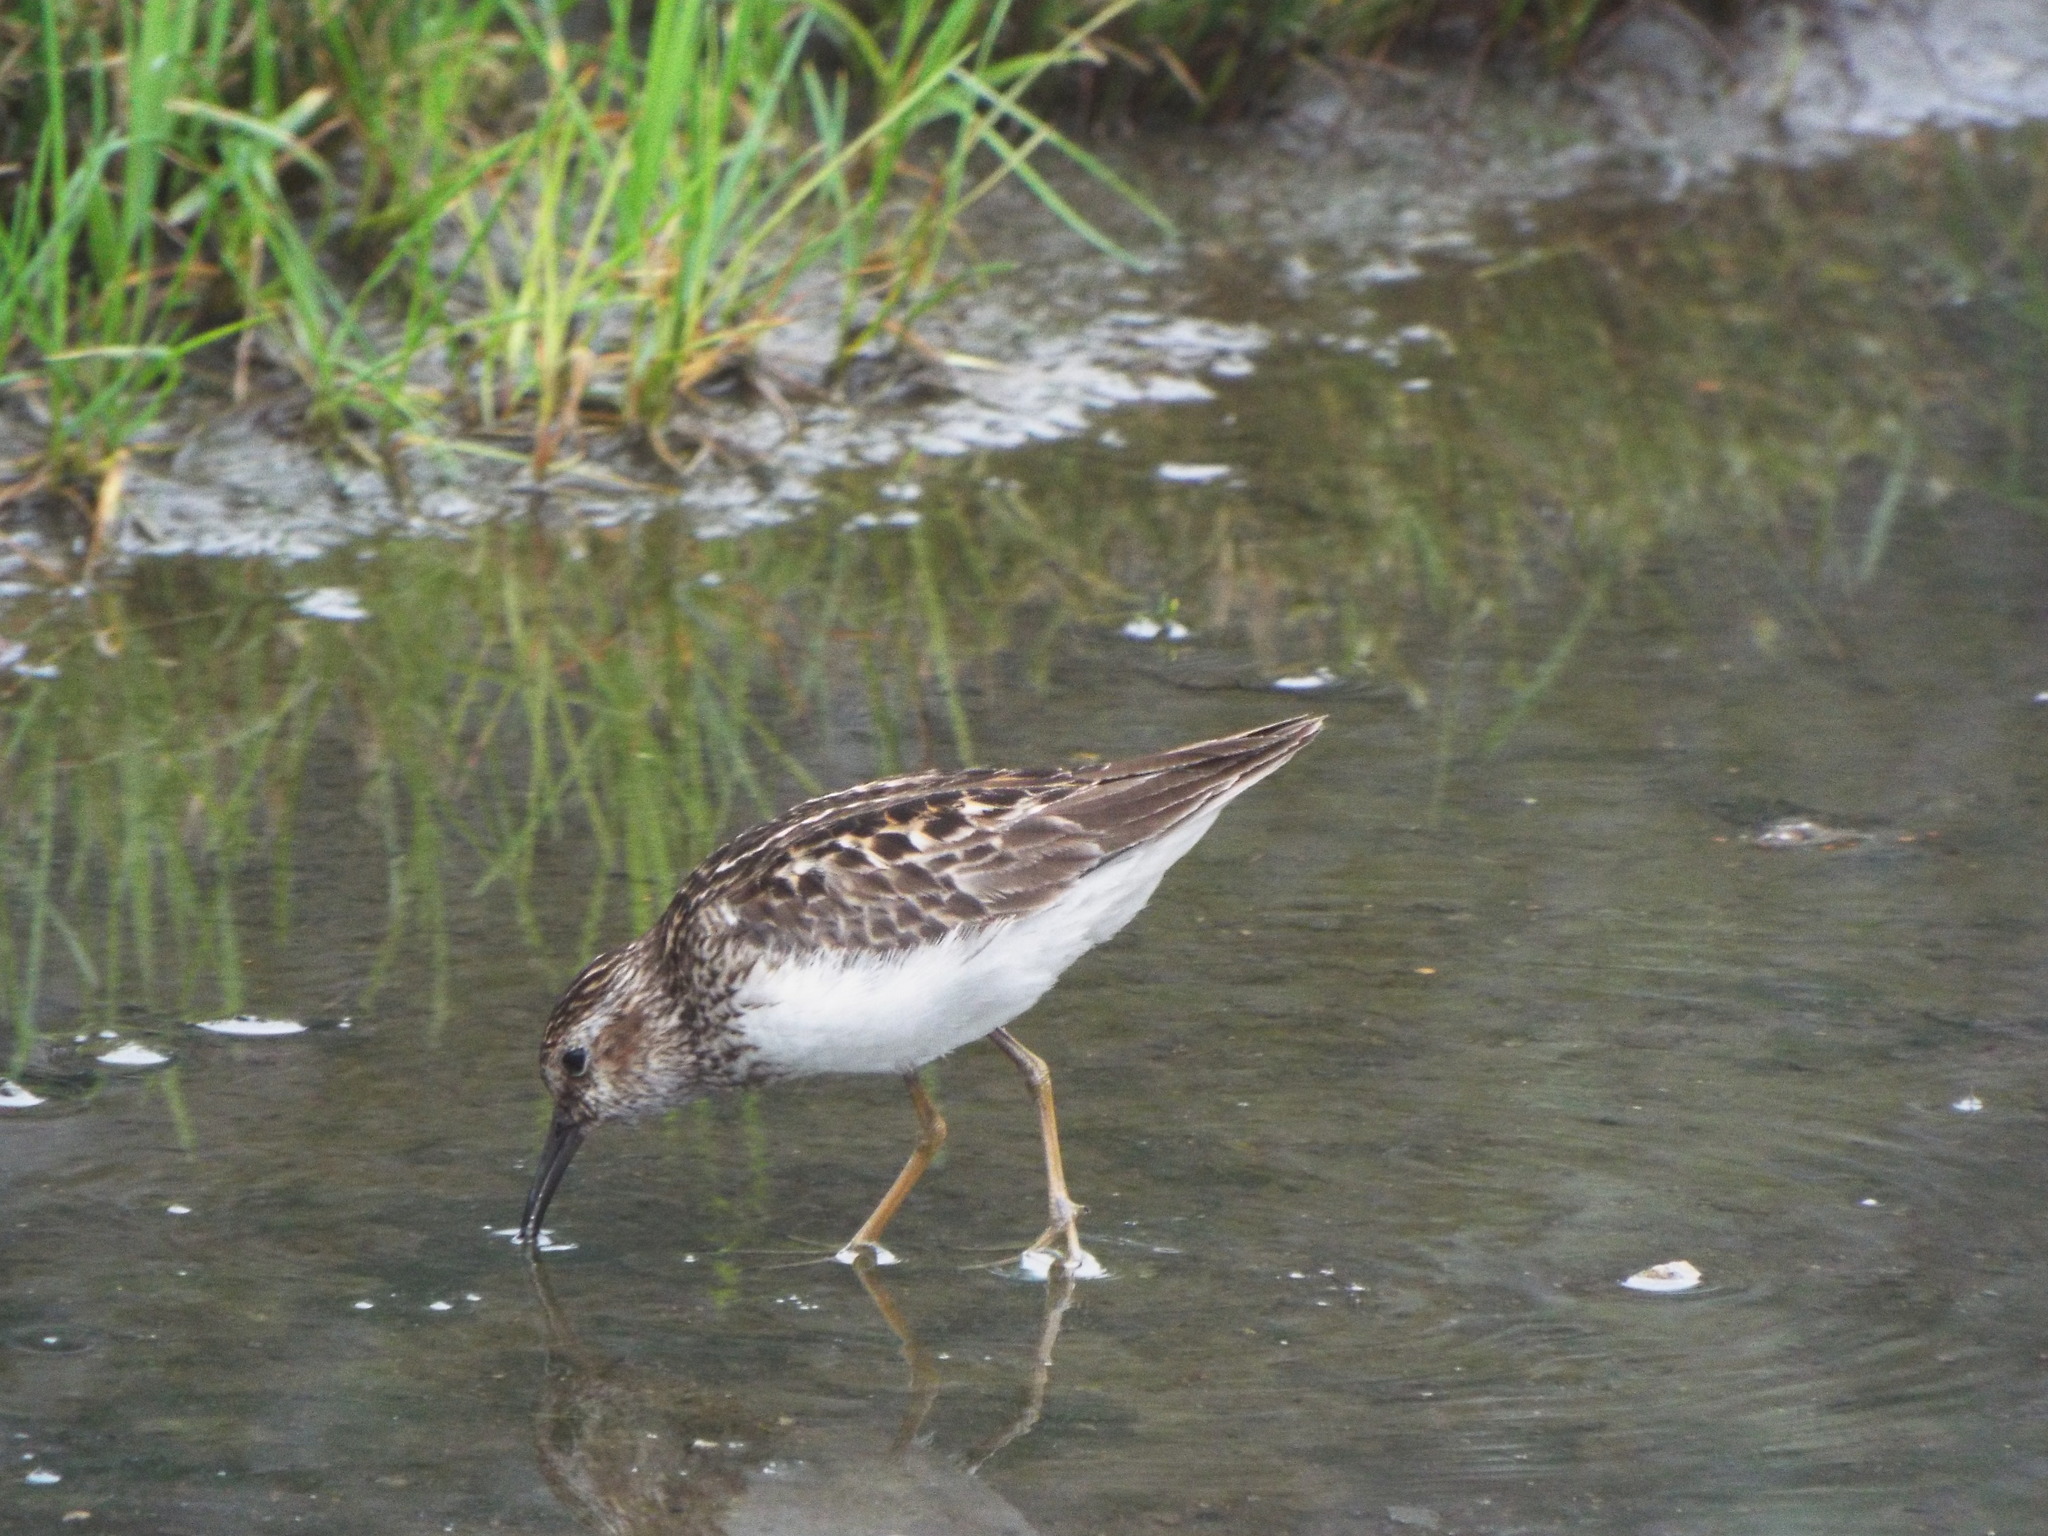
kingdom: Animalia
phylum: Chordata
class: Aves
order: Charadriiformes
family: Scolopacidae
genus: Calidris
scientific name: Calidris minutilla
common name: Least sandpiper
